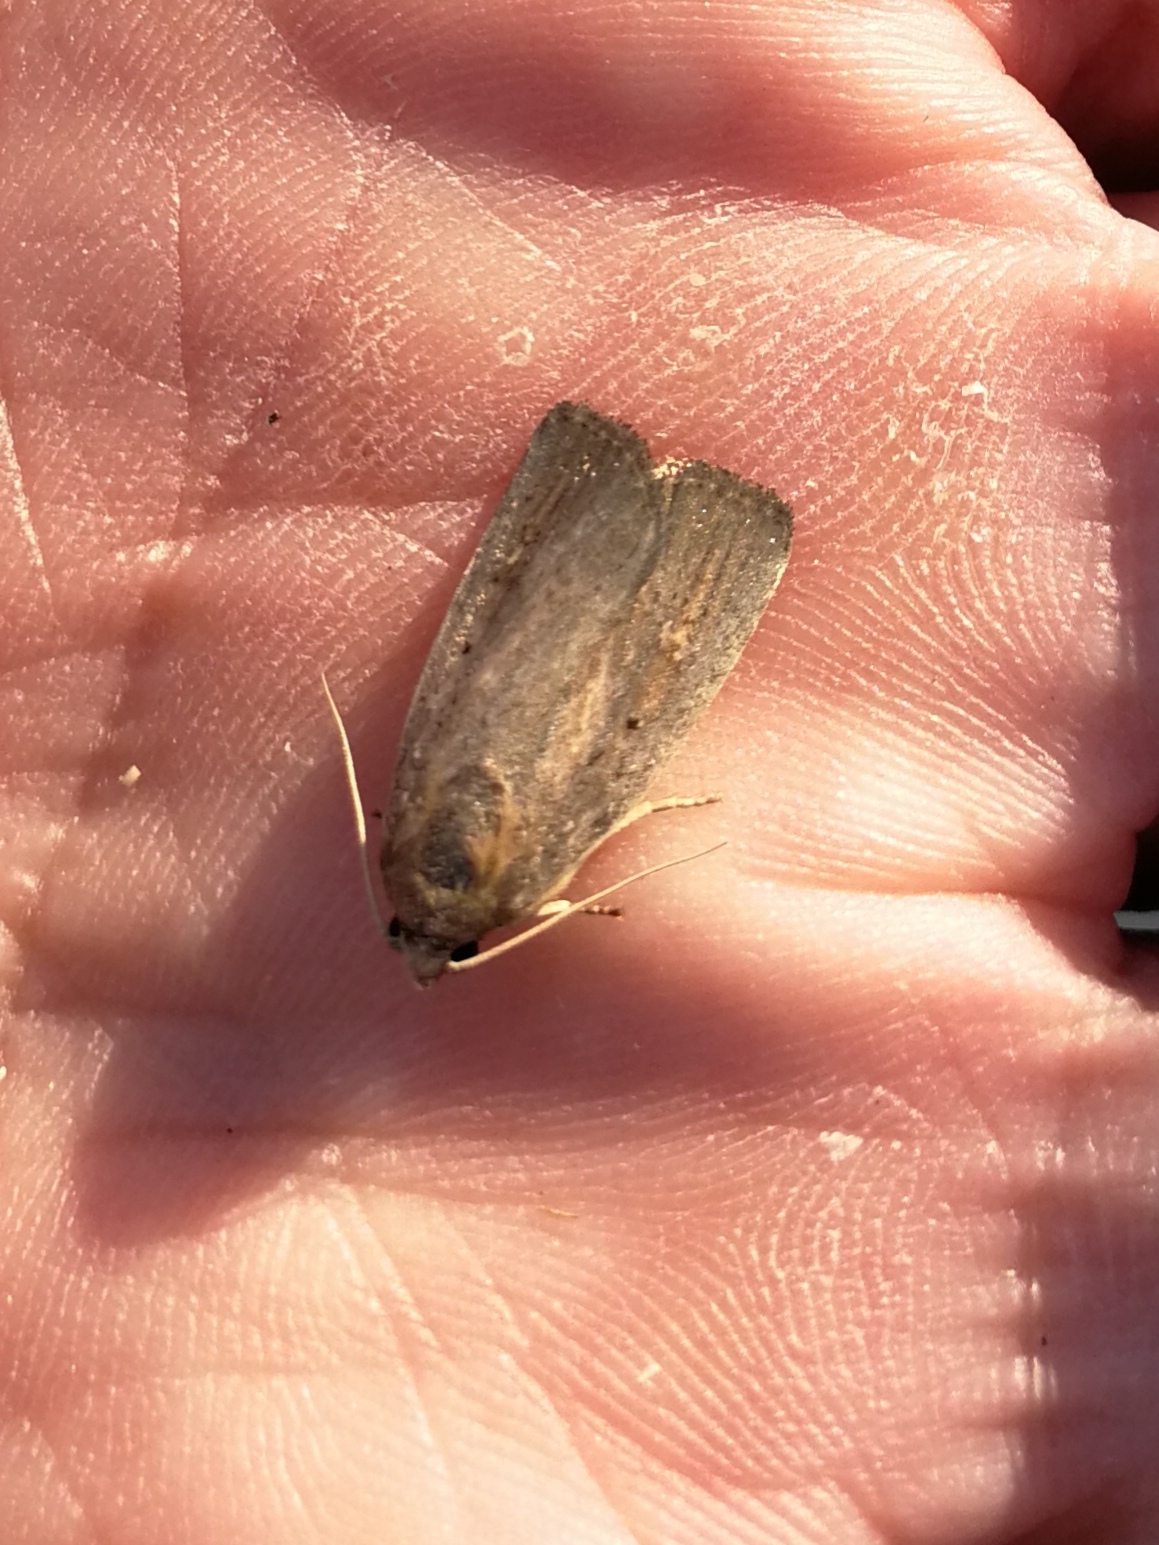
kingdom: Animalia
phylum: Arthropoda
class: Insecta
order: Lepidoptera
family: Noctuidae
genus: Athetis
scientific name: Athetis hospes
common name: Porter's rustic
